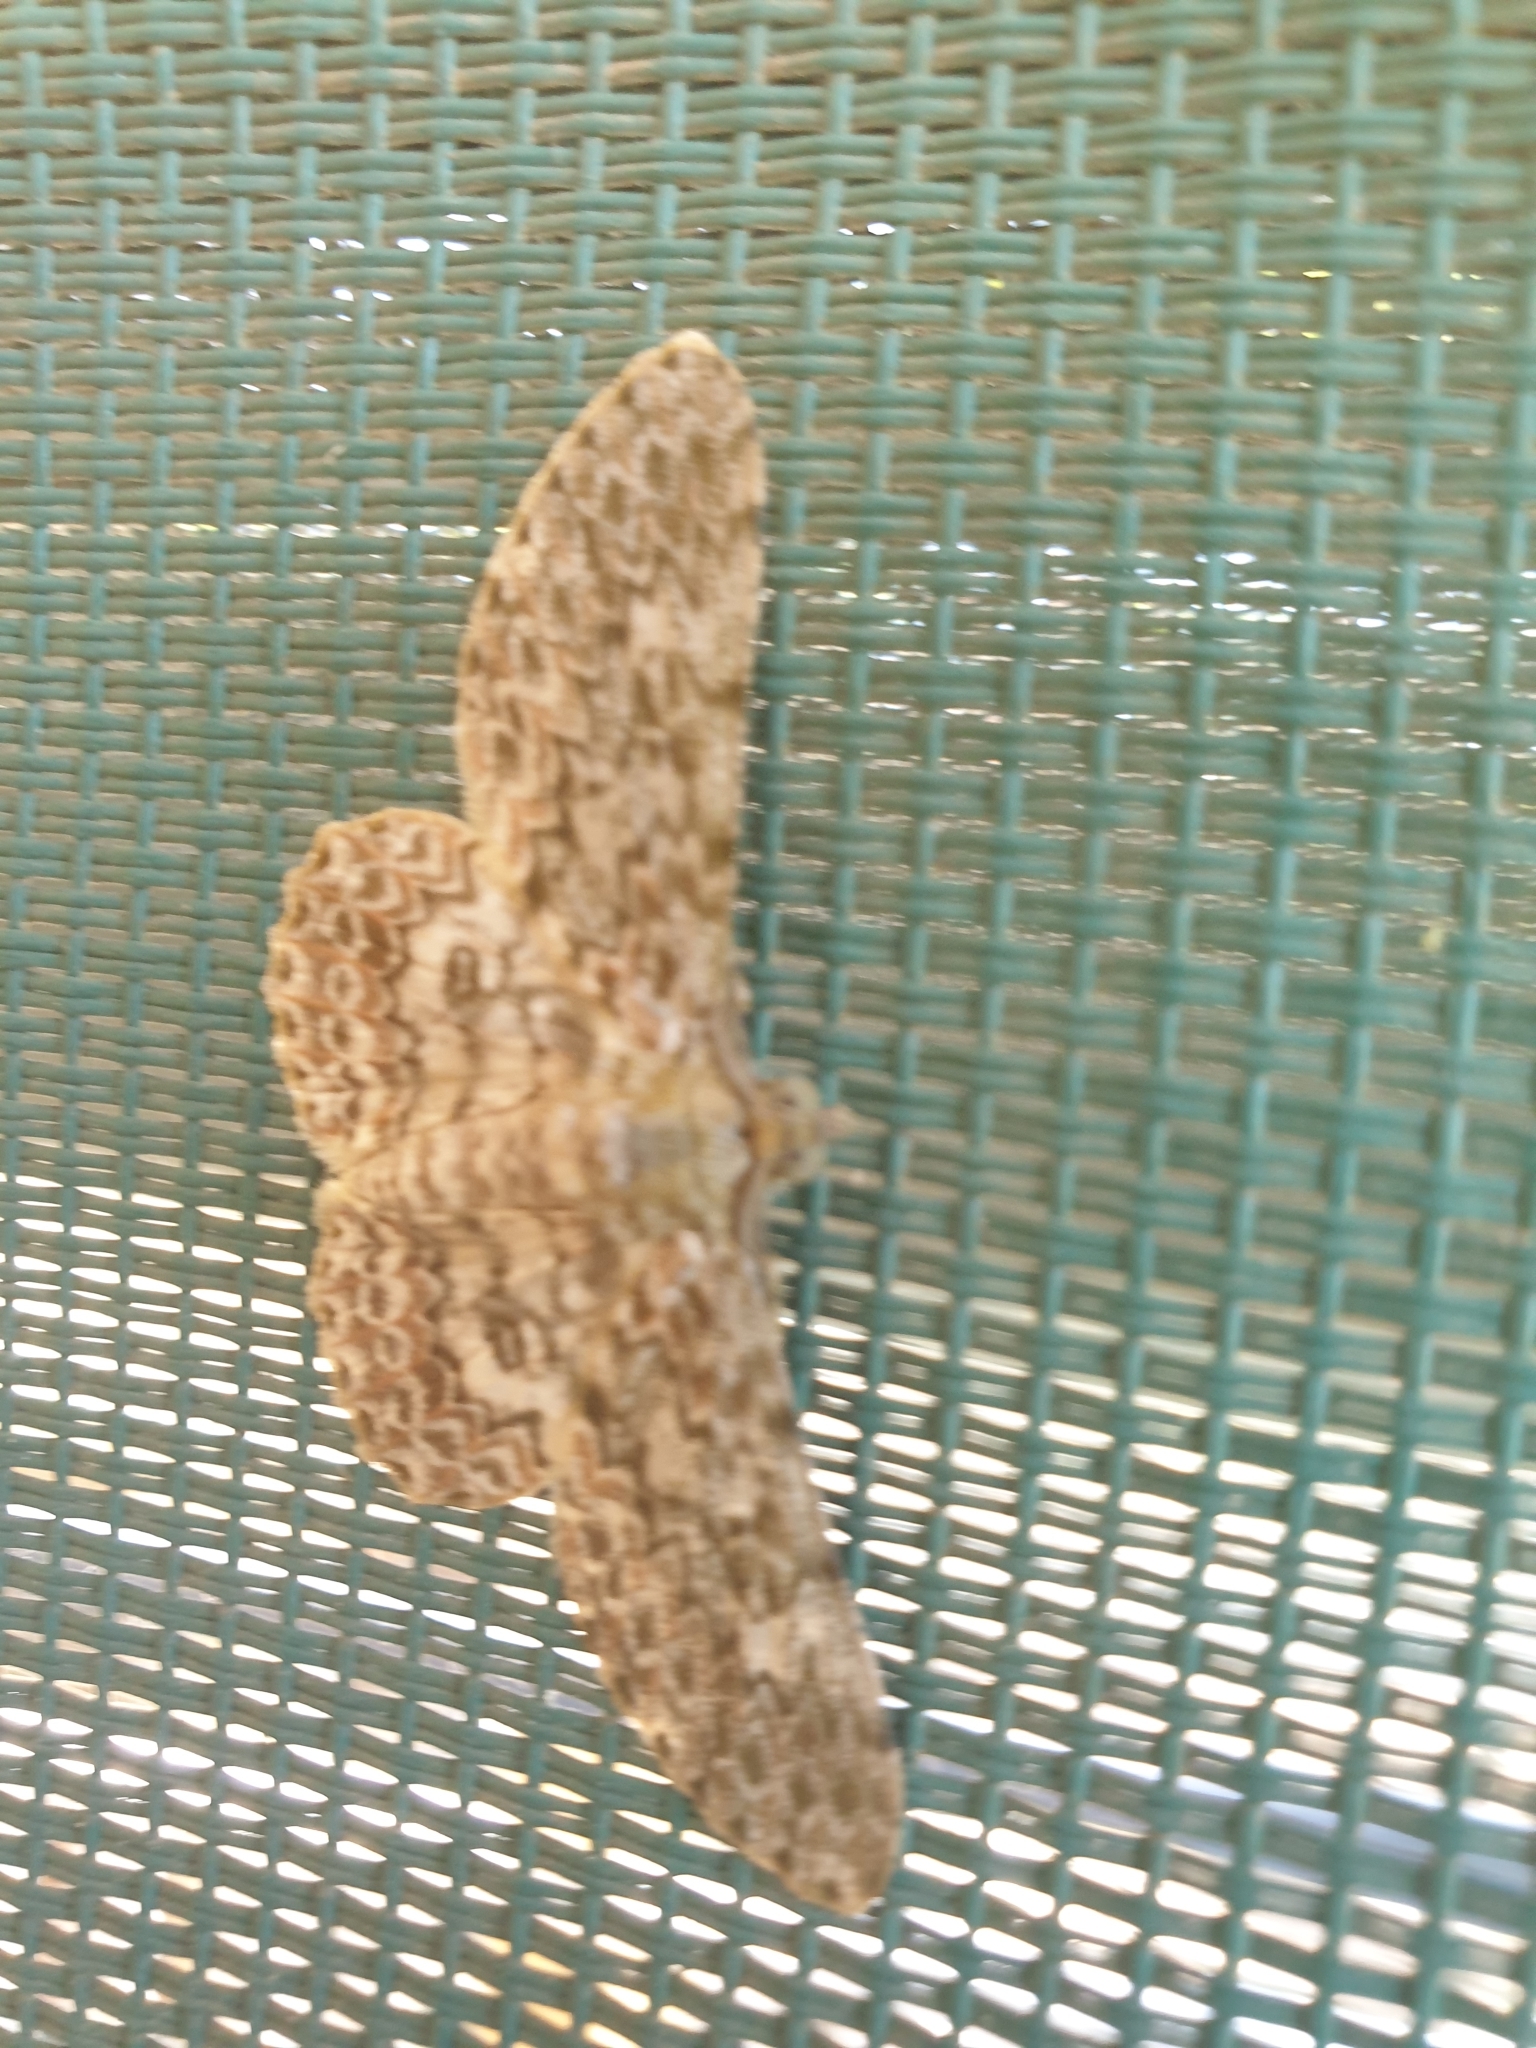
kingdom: Animalia
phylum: Arthropoda
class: Insecta
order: Lepidoptera
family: Geometridae
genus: Cleora
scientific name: Cleora sabulata
